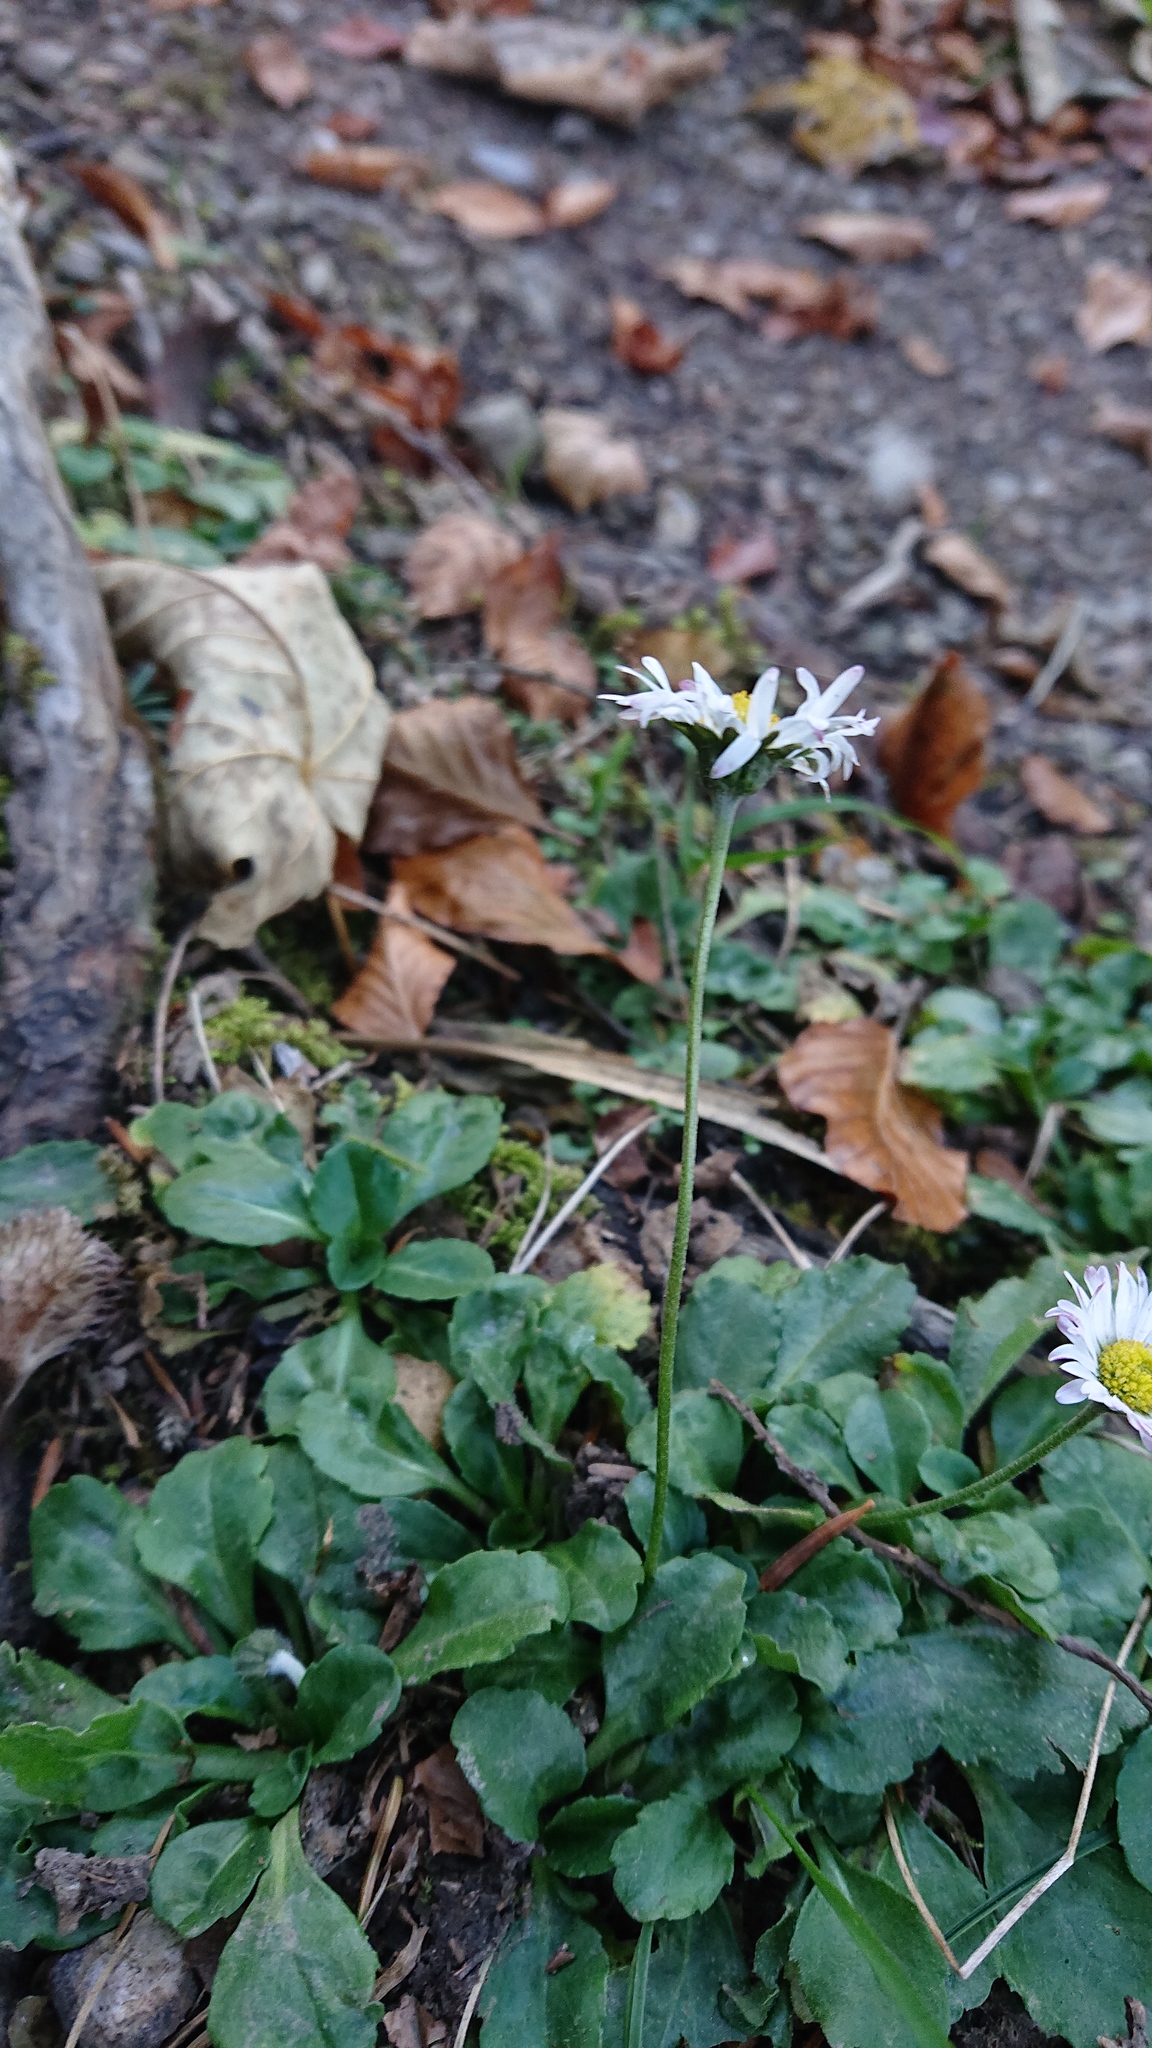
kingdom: Plantae
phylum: Tracheophyta
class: Magnoliopsida
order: Asterales
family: Asteraceae
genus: Bellis
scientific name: Bellis perennis
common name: Lawndaisy
